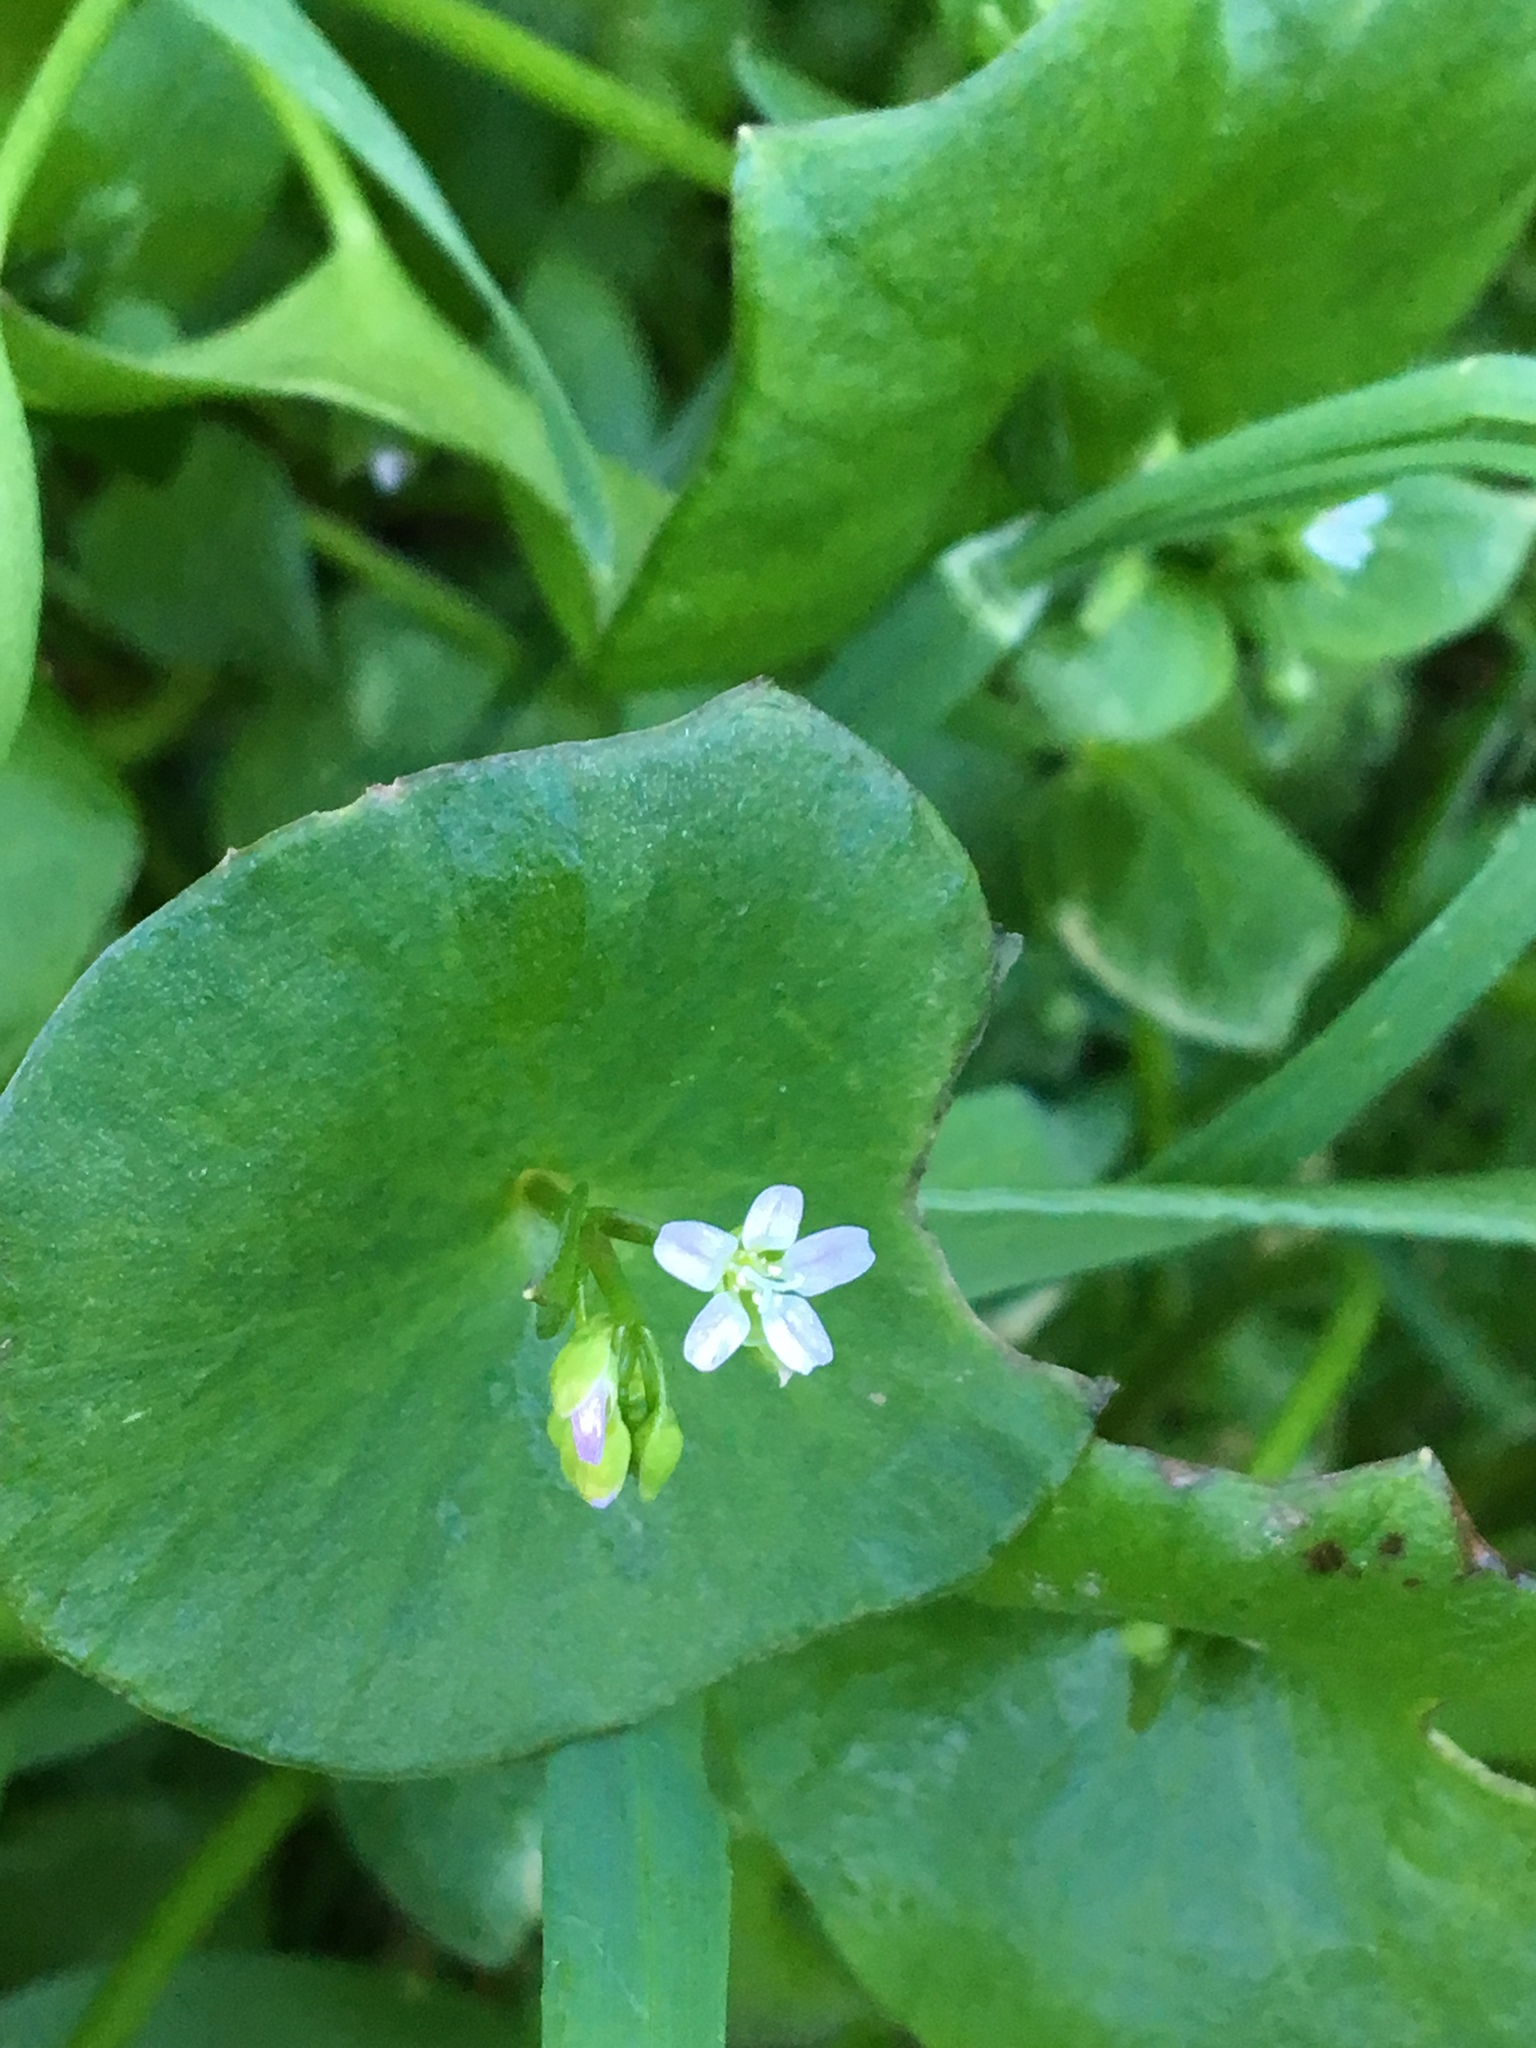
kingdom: Plantae
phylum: Tracheophyta
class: Magnoliopsida
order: Caryophyllales
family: Montiaceae
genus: Claytonia
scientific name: Claytonia perfoliata
